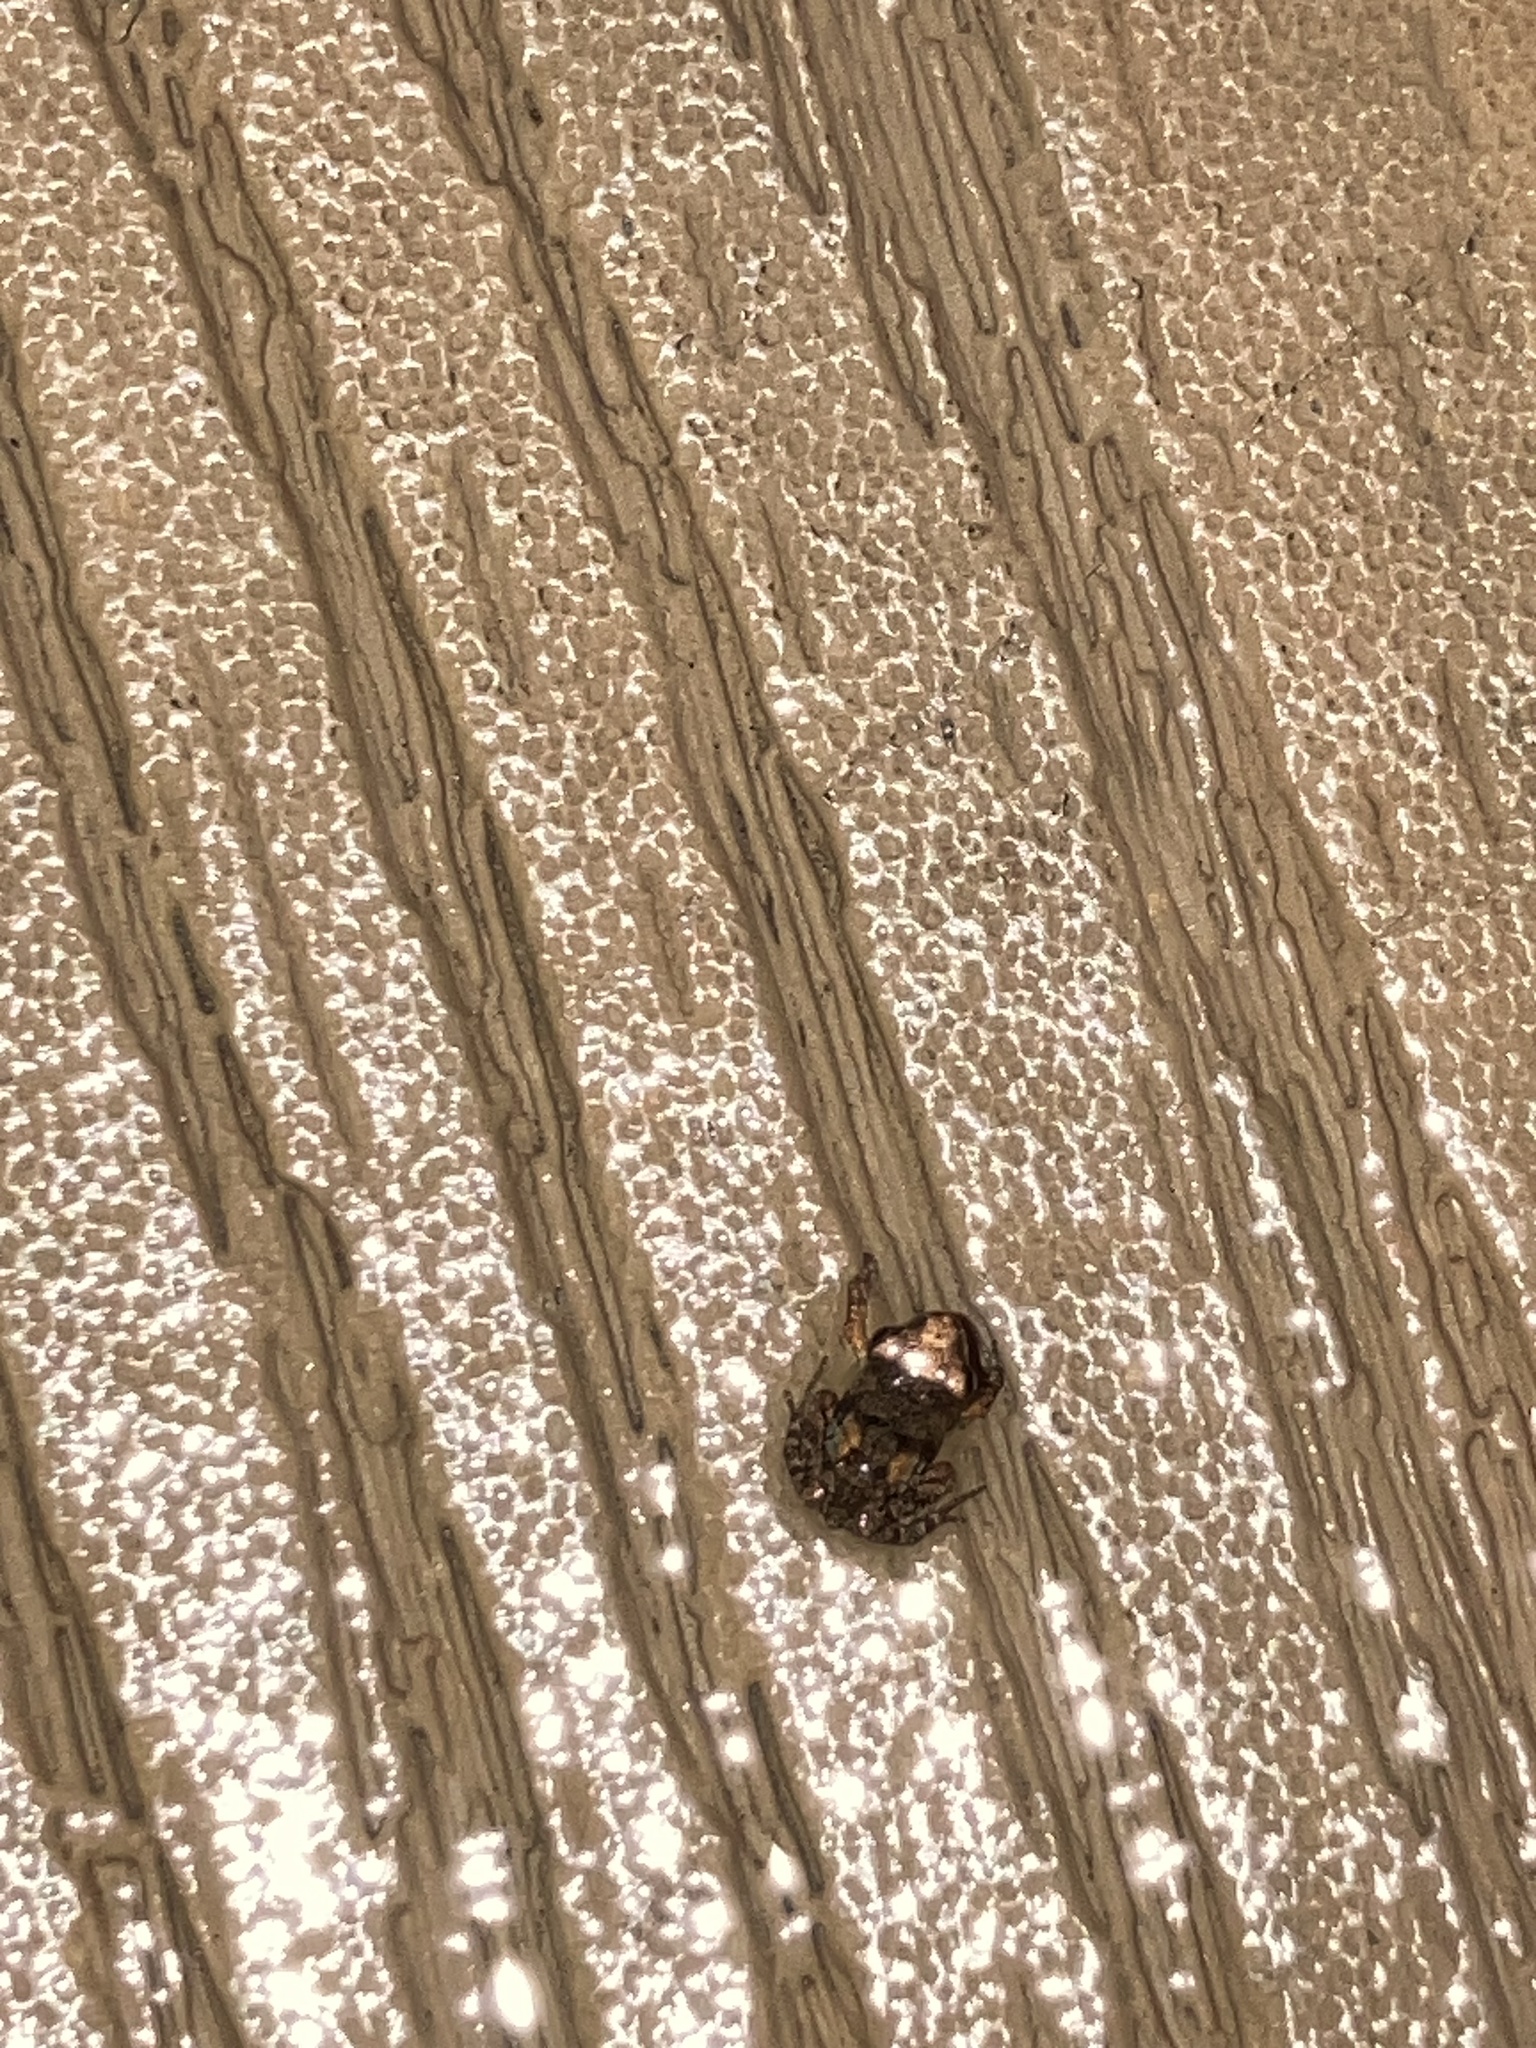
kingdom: Animalia
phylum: Chordata
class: Amphibia
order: Anura
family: Eleutherodactylidae
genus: Eleutherodactylus
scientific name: Eleutherodactylus planirostris
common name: Greenhouse frog
